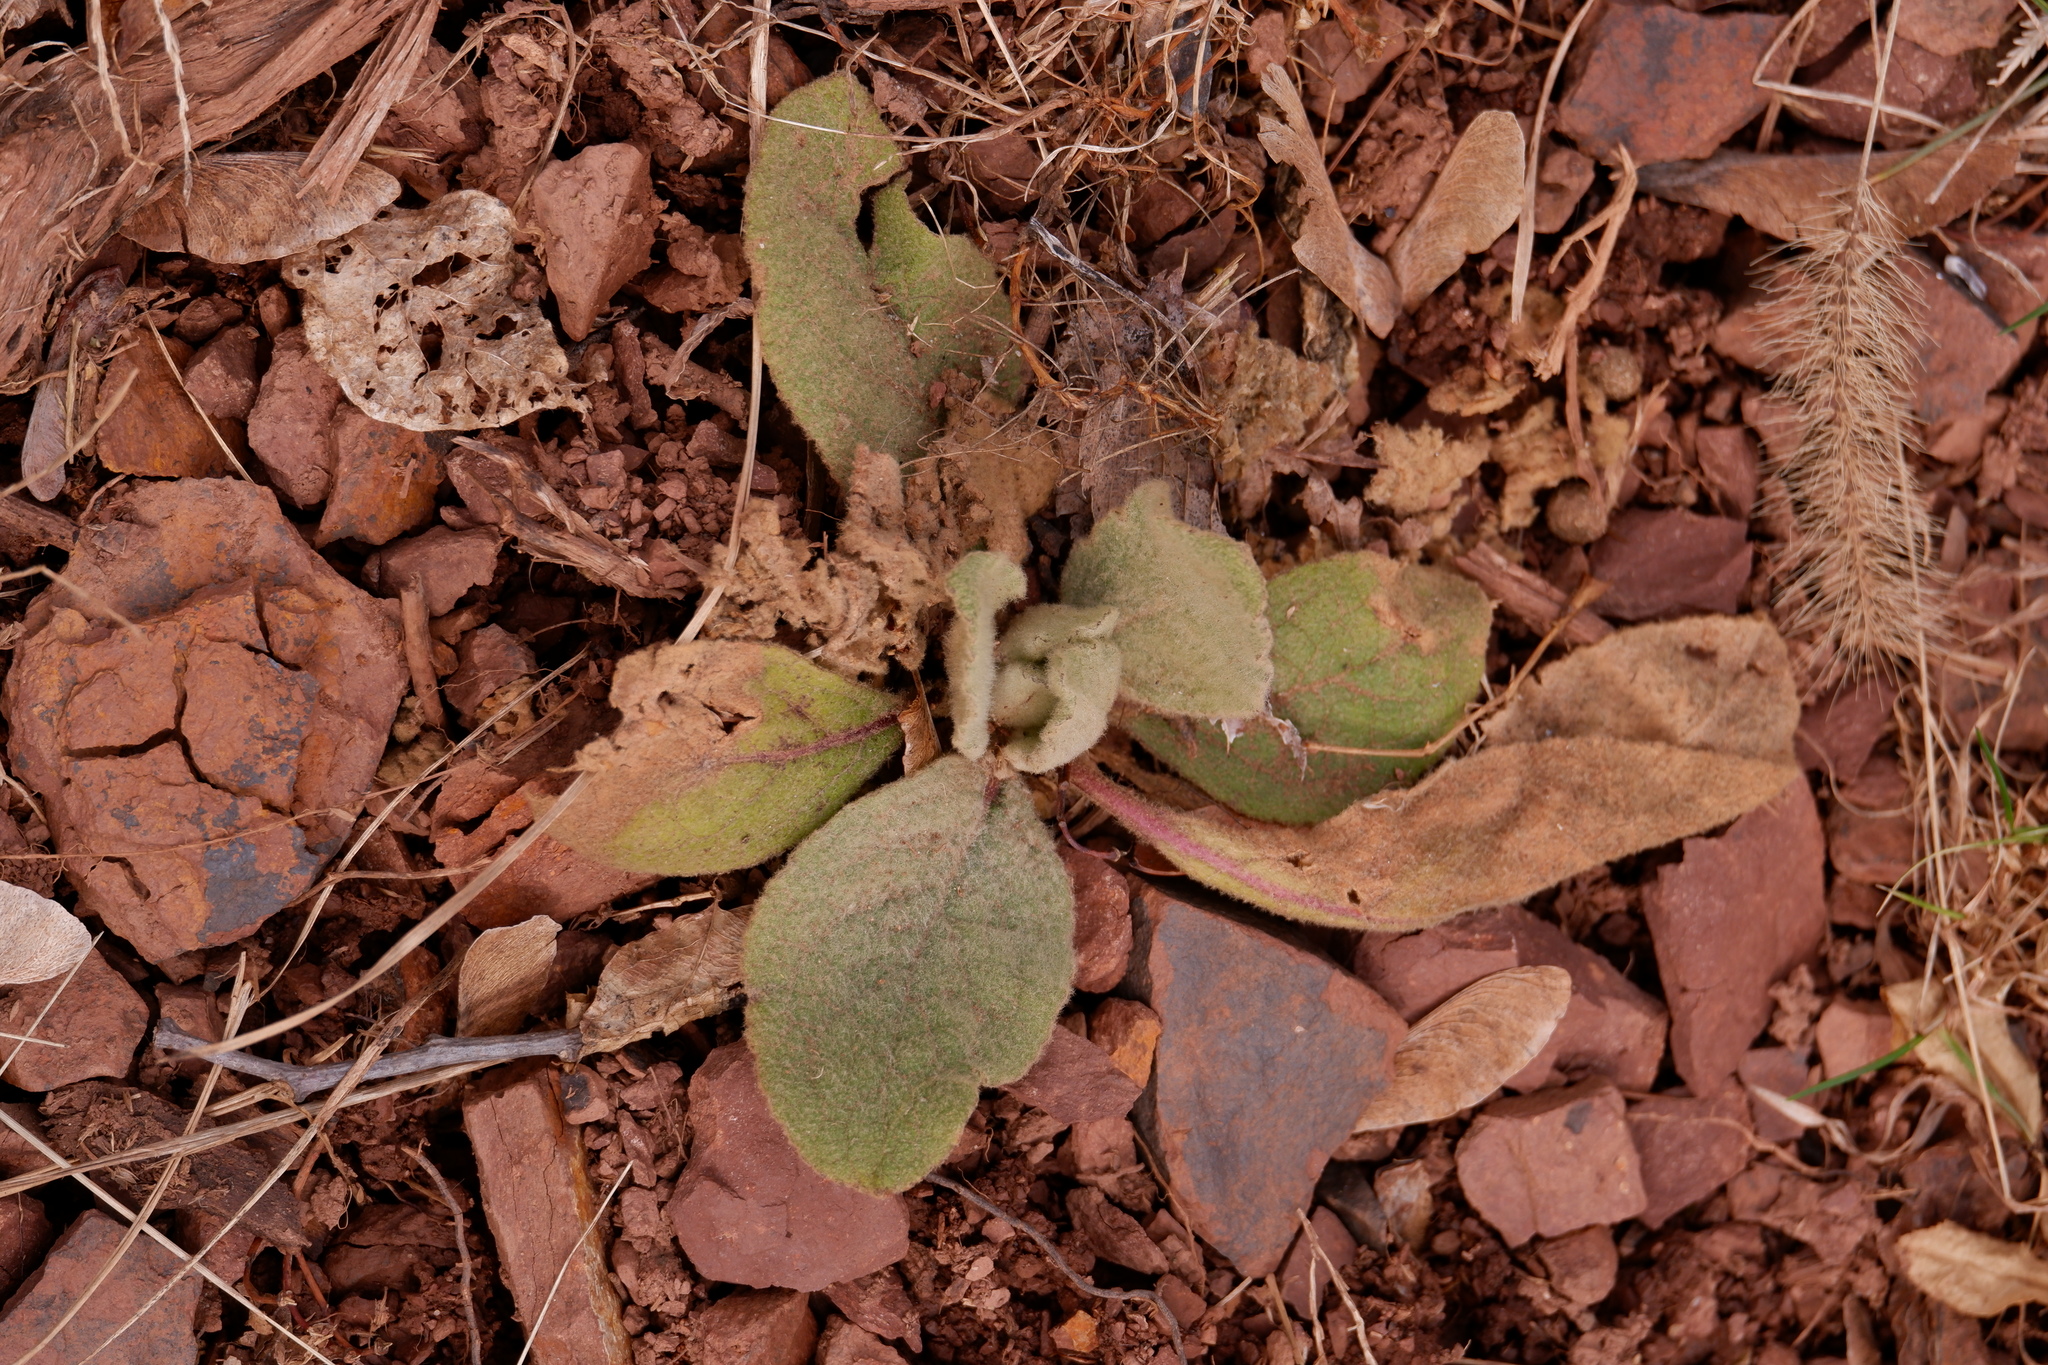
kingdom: Plantae
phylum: Tracheophyta
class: Magnoliopsida
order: Lamiales
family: Scrophulariaceae
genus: Verbascum
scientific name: Verbascum thapsus
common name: Common mullein
